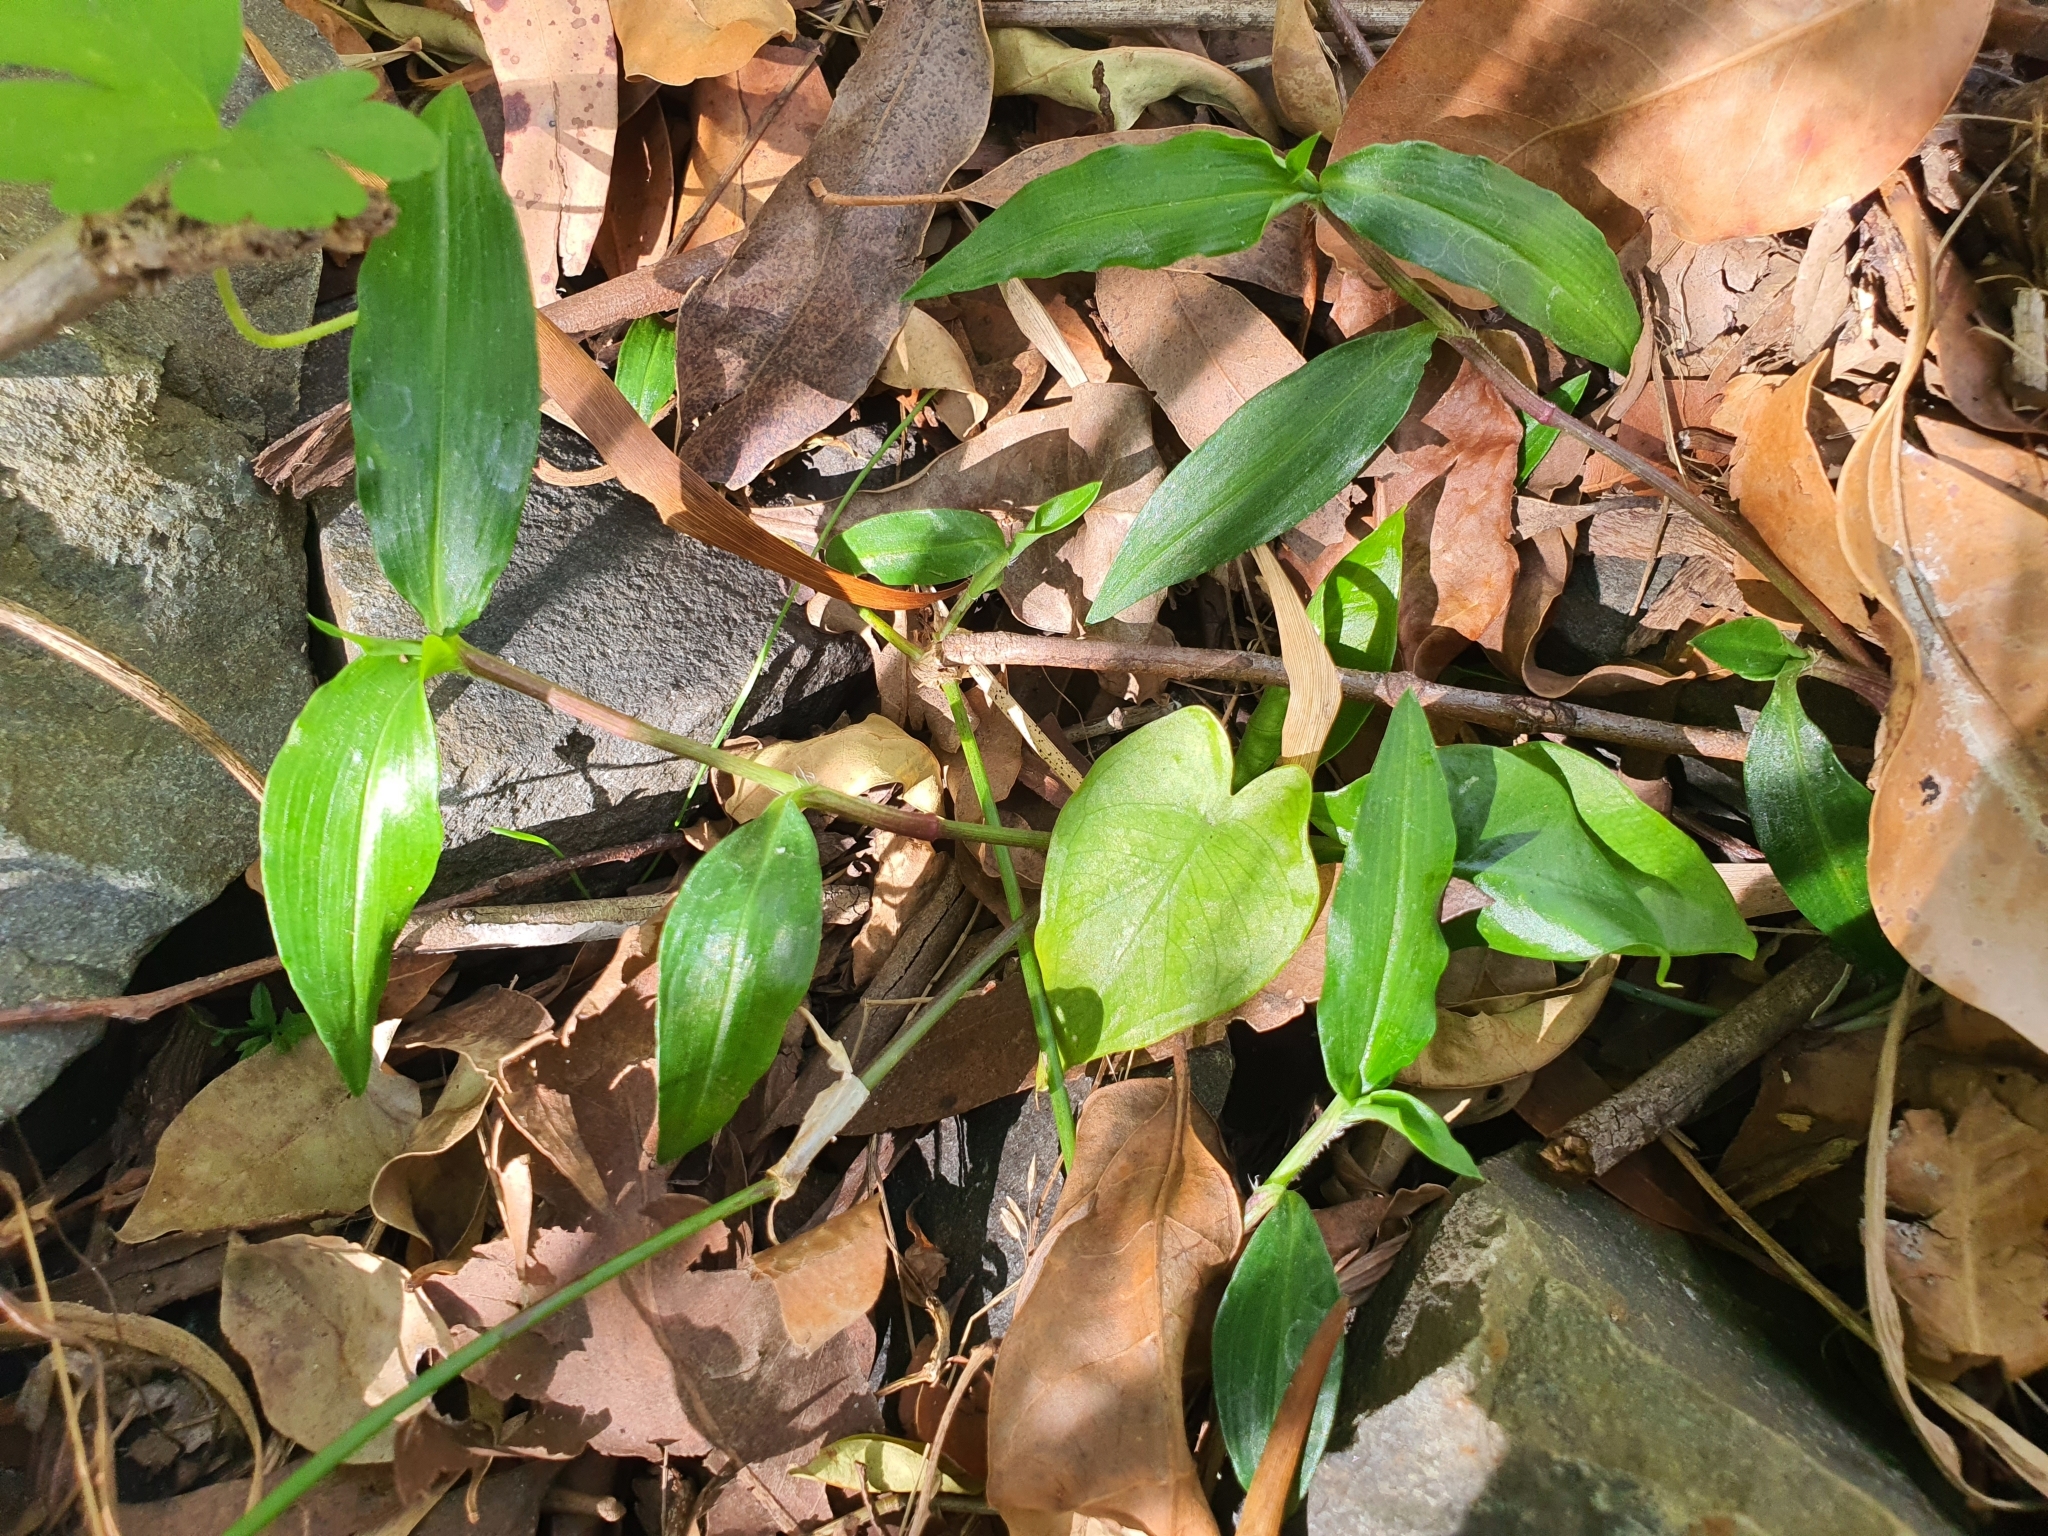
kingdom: Plantae
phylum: Tracheophyta
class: Liliopsida
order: Commelinales
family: Commelinaceae
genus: Commelina
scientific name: Commelina cyanea
